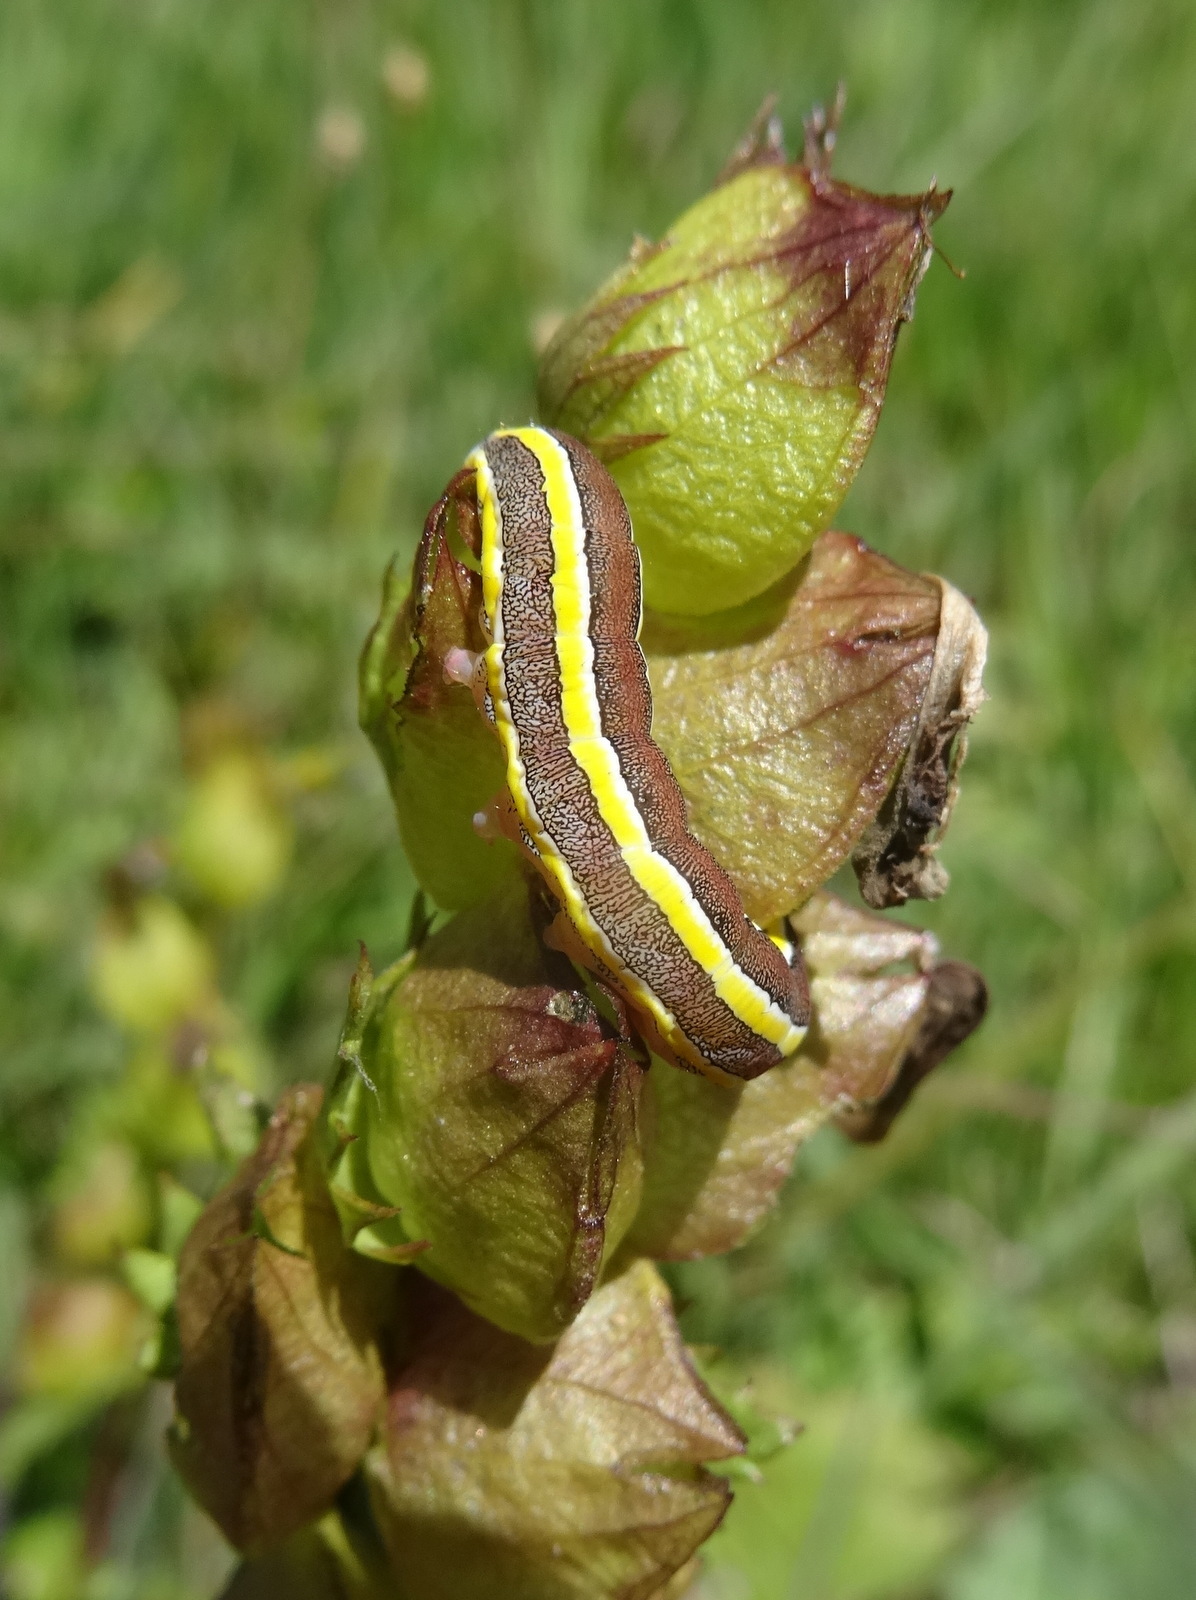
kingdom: Animalia
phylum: Arthropoda
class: Insecta
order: Lepidoptera
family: Noctuidae
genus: Ceramica
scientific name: Ceramica pisi
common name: Broom moth
